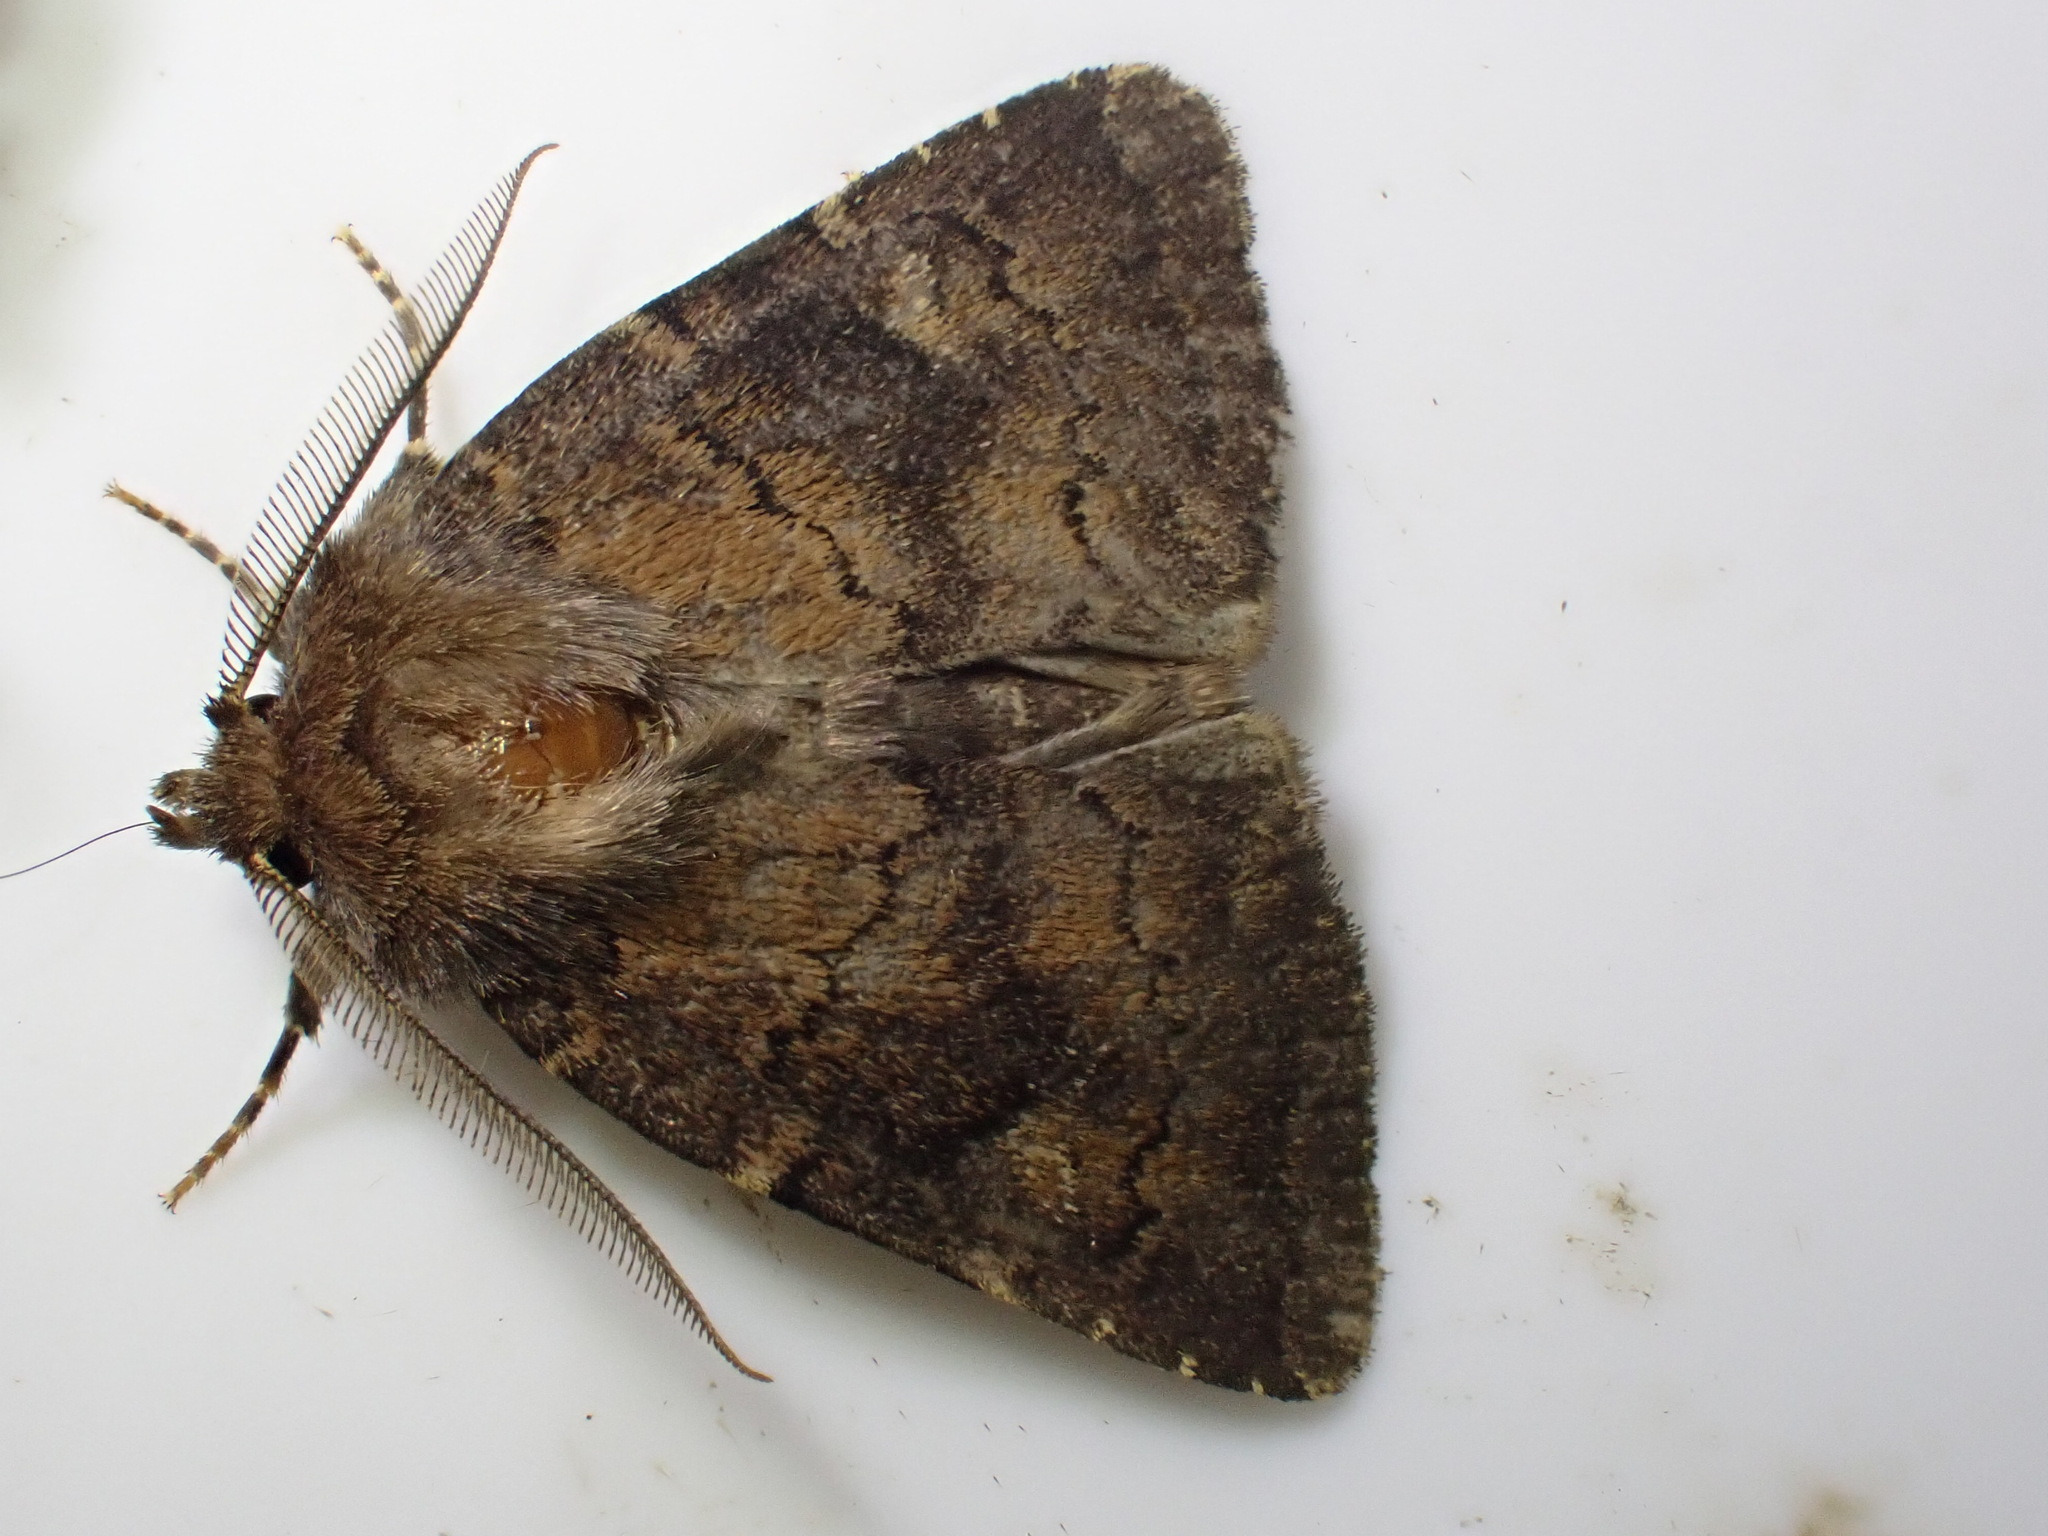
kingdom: Animalia
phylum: Arthropoda
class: Insecta
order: Lepidoptera
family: Noctuidae
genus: Charanyca
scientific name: Charanyca ferruginea
